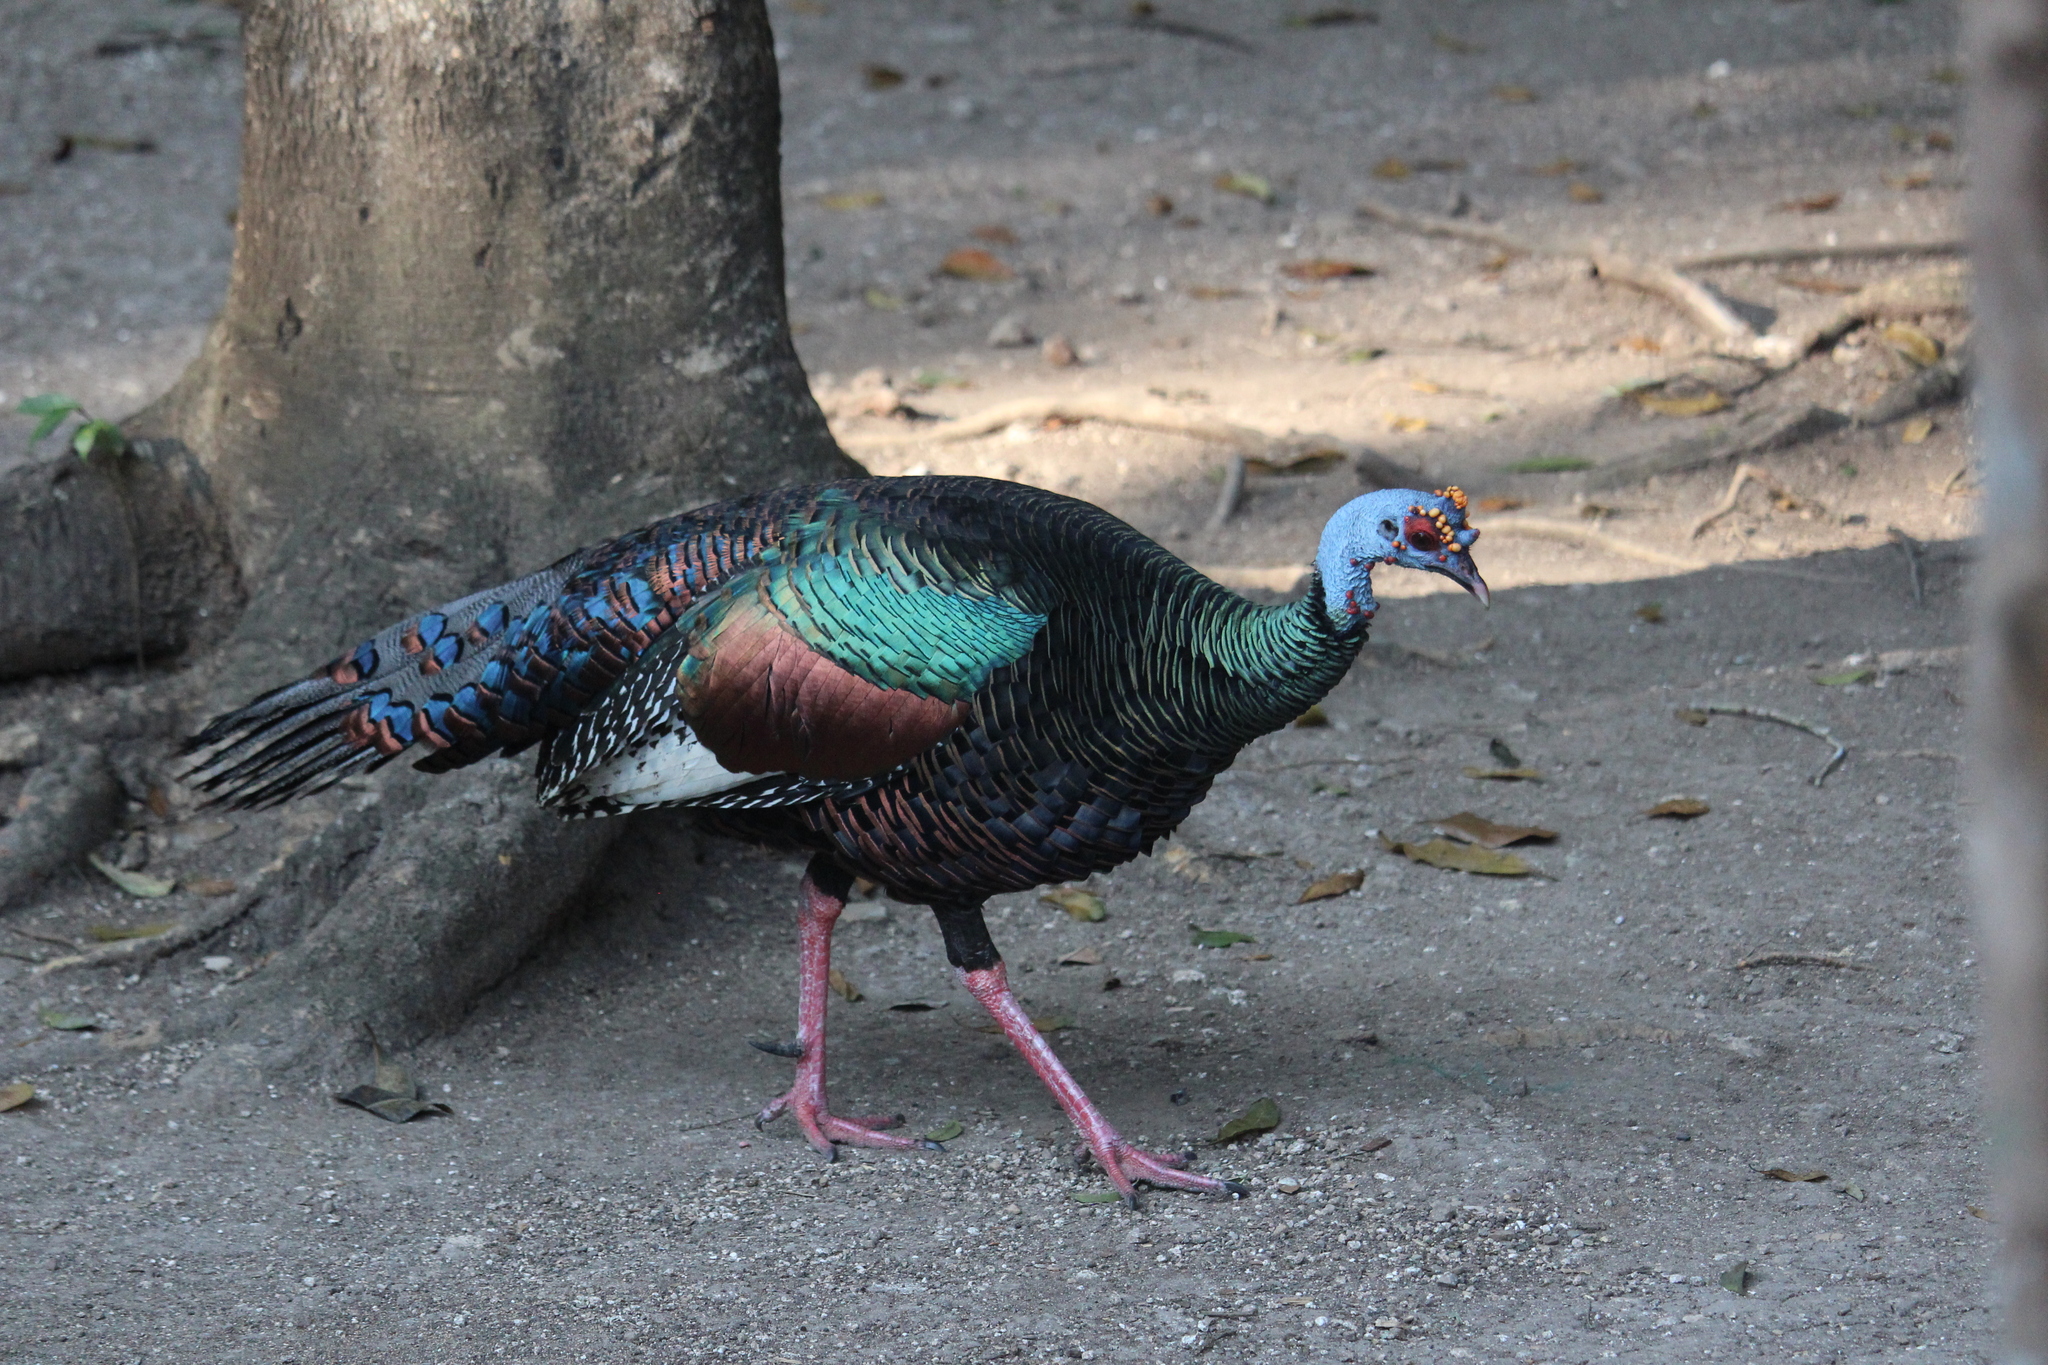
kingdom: Animalia
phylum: Chordata
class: Aves
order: Galliformes
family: Phasianidae
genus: Meleagris
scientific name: Meleagris ocellata
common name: Ocellated turkey
